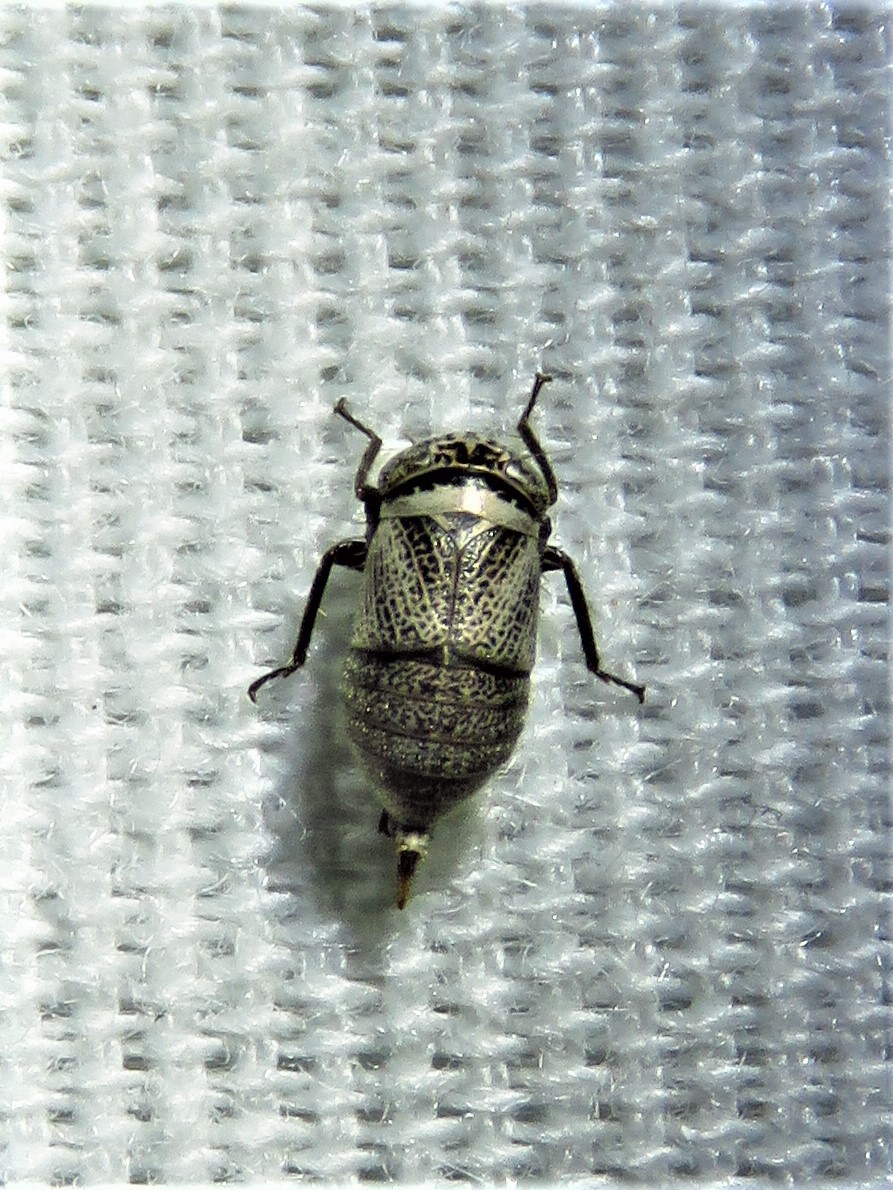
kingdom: Animalia
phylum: Arthropoda
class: Insecta
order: Hemiptera
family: Cicadellidae
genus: Driotura
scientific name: Driotura robusta
